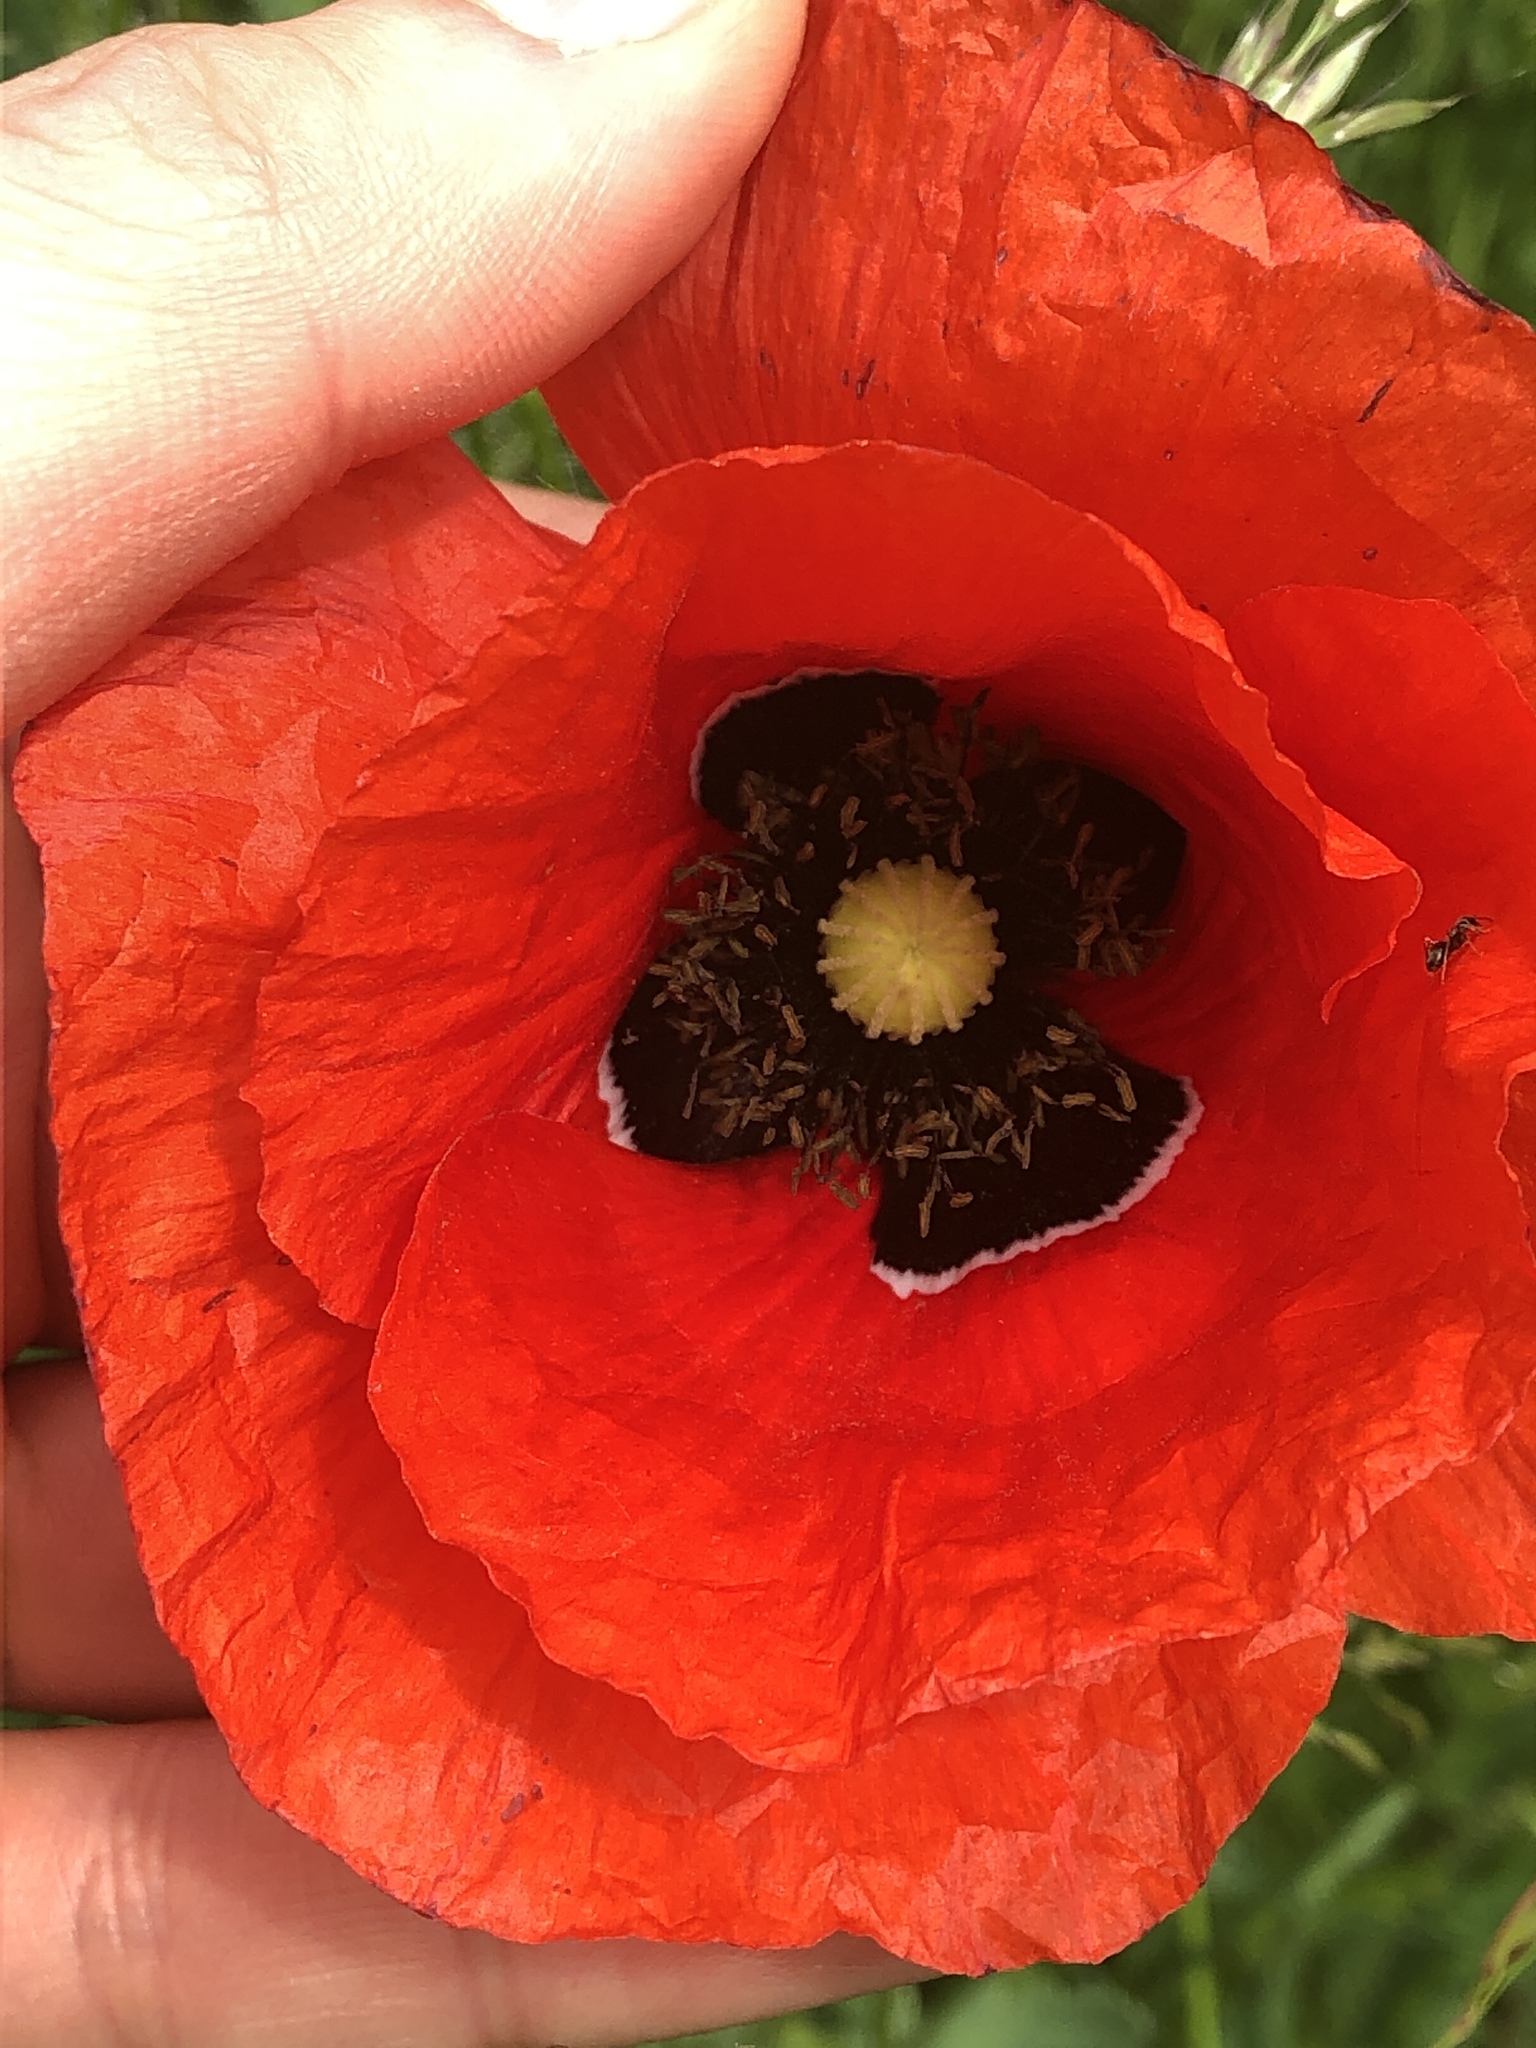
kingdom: Plantae
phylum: Tracheophyta
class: Magnoliopsida
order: Ranunculales
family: Papaveraceae
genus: Papaver
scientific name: Papaver rhoeas
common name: Corn poppy
